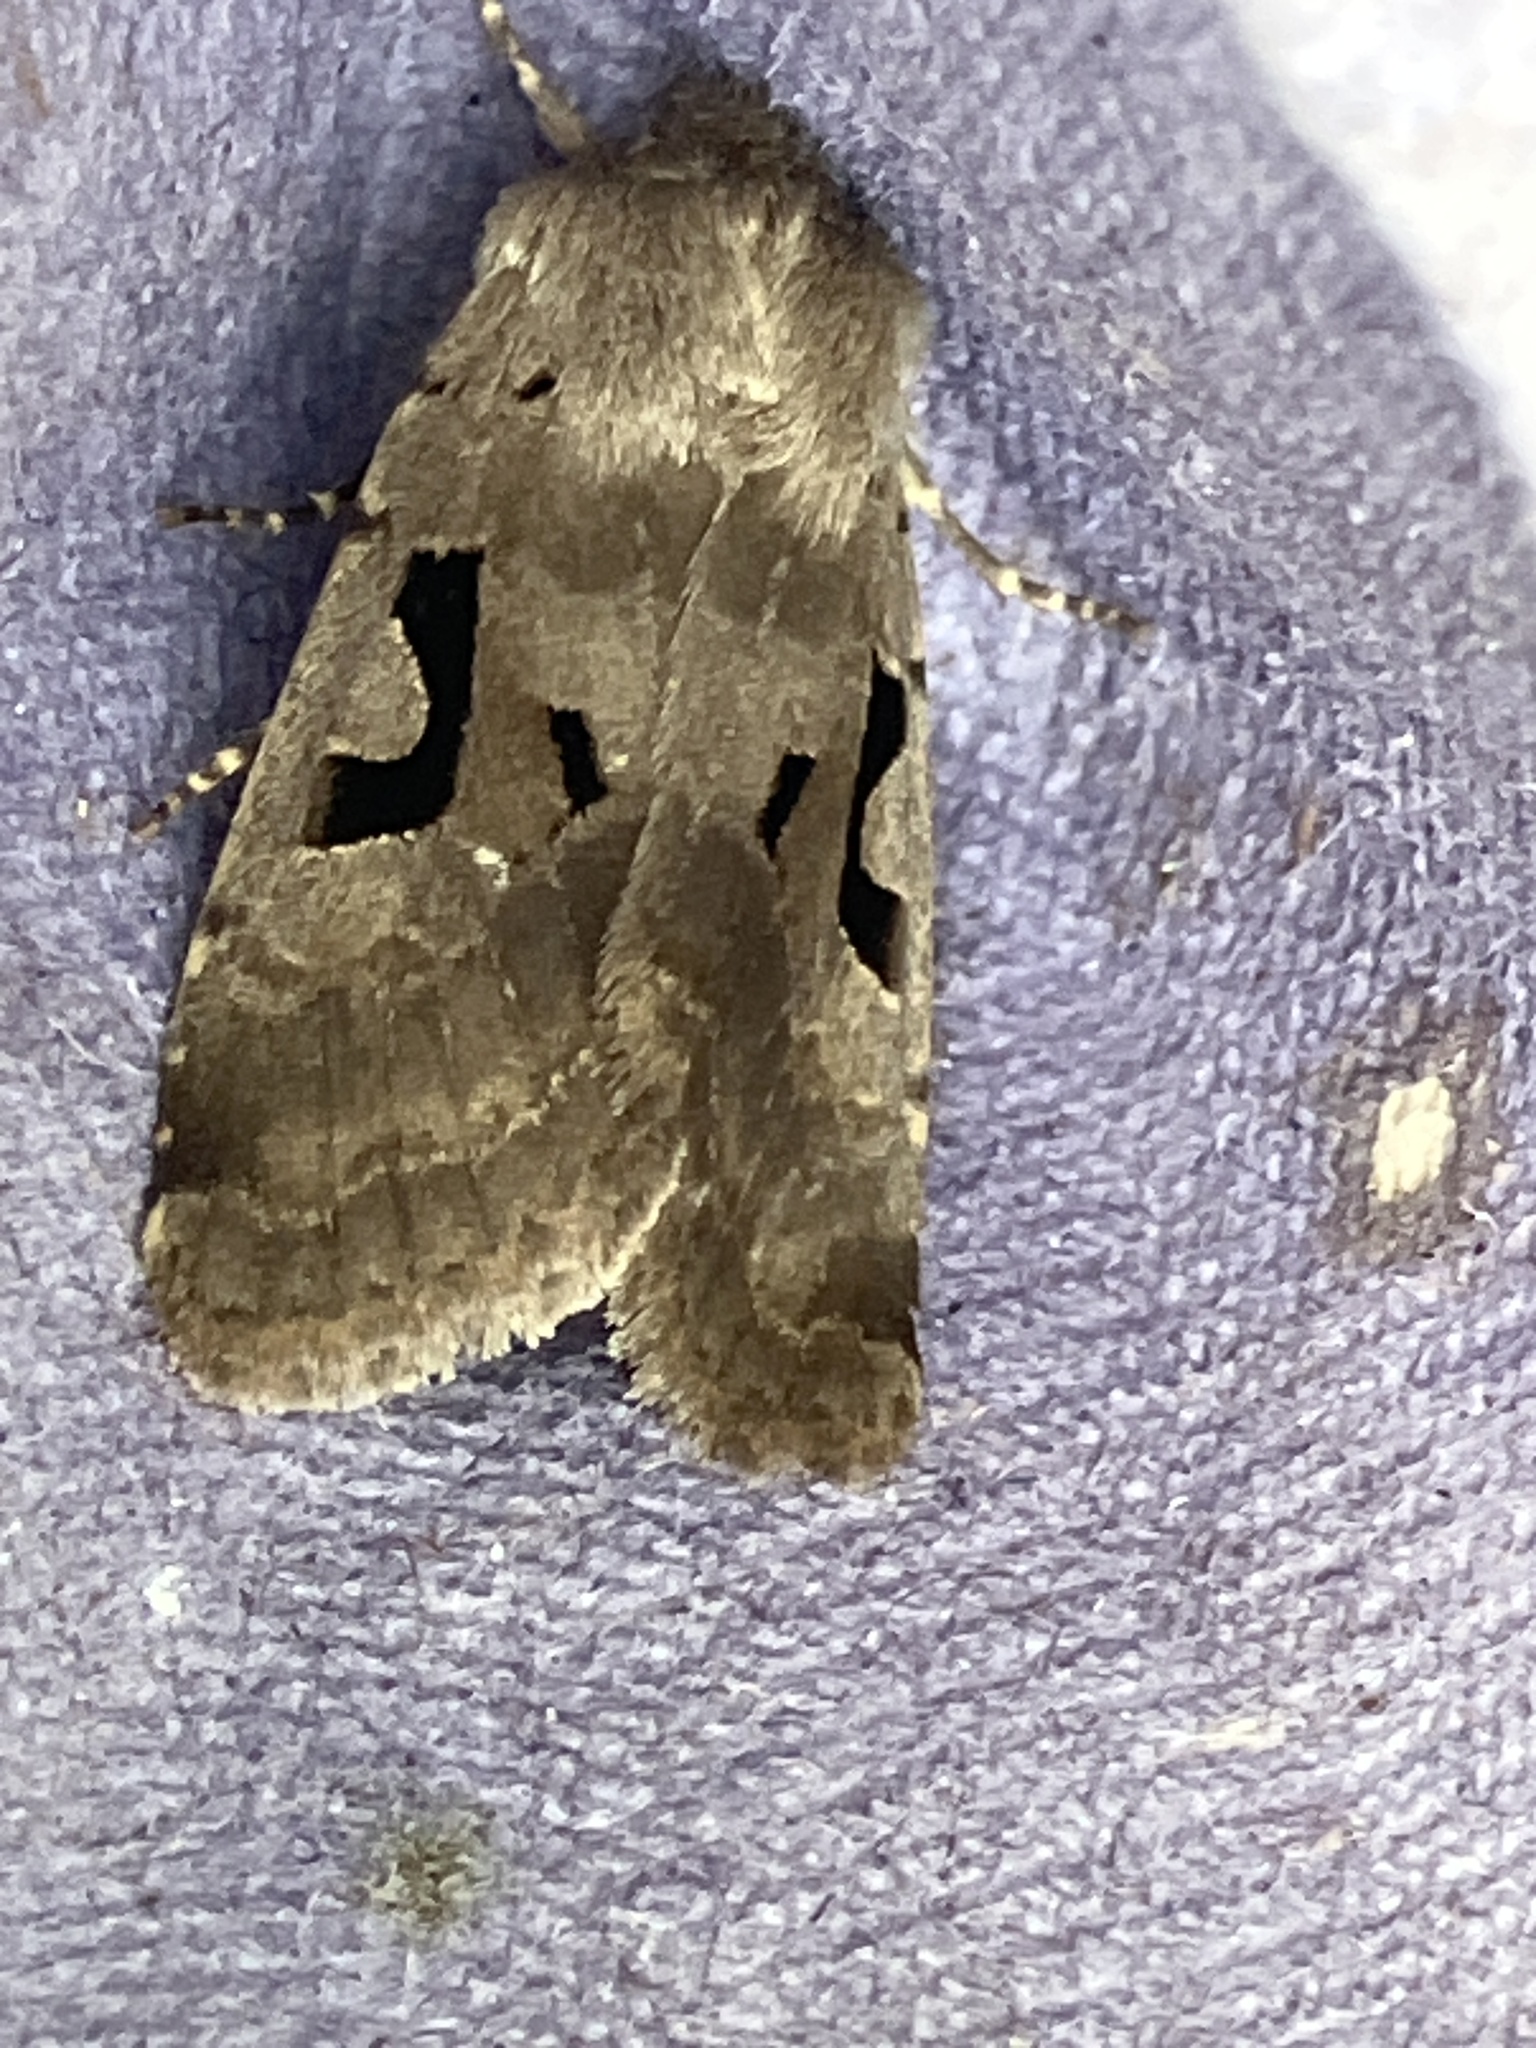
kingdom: Animalia
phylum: Arthropoda
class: Insecta
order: Lepidoptera
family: Noctuidae
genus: Orthosia
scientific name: Orthosia gothica
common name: Hebrew character
